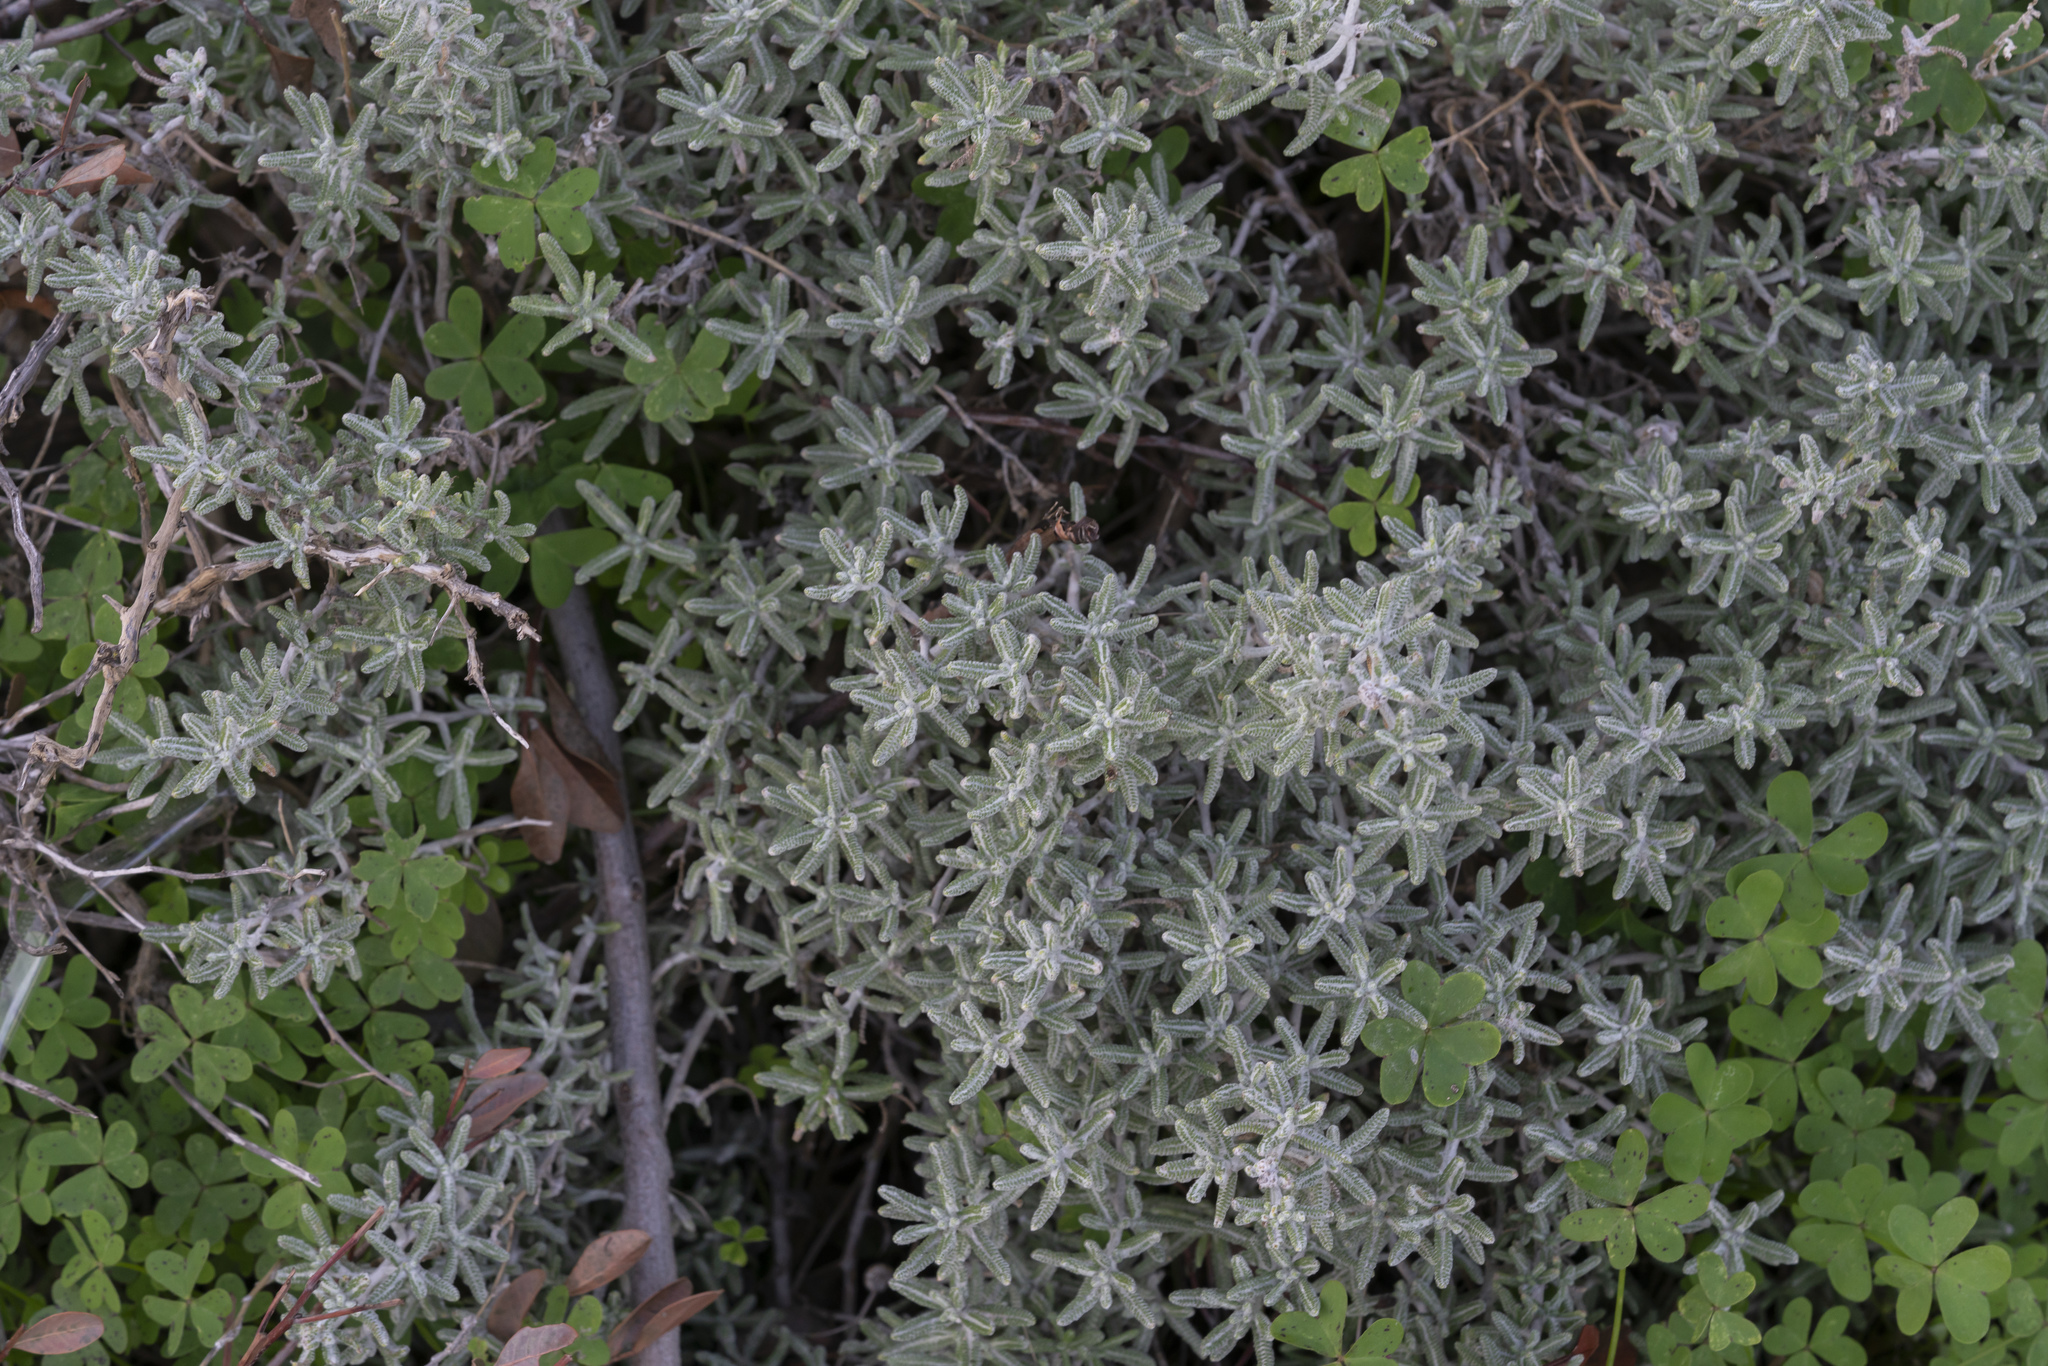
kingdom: Plantae
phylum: Tracheophyta
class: Magnoliopsida
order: Asterales
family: Asteraceae
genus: Achillea
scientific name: Achillea cretica
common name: Chamomile-leaved lavender-cotton
